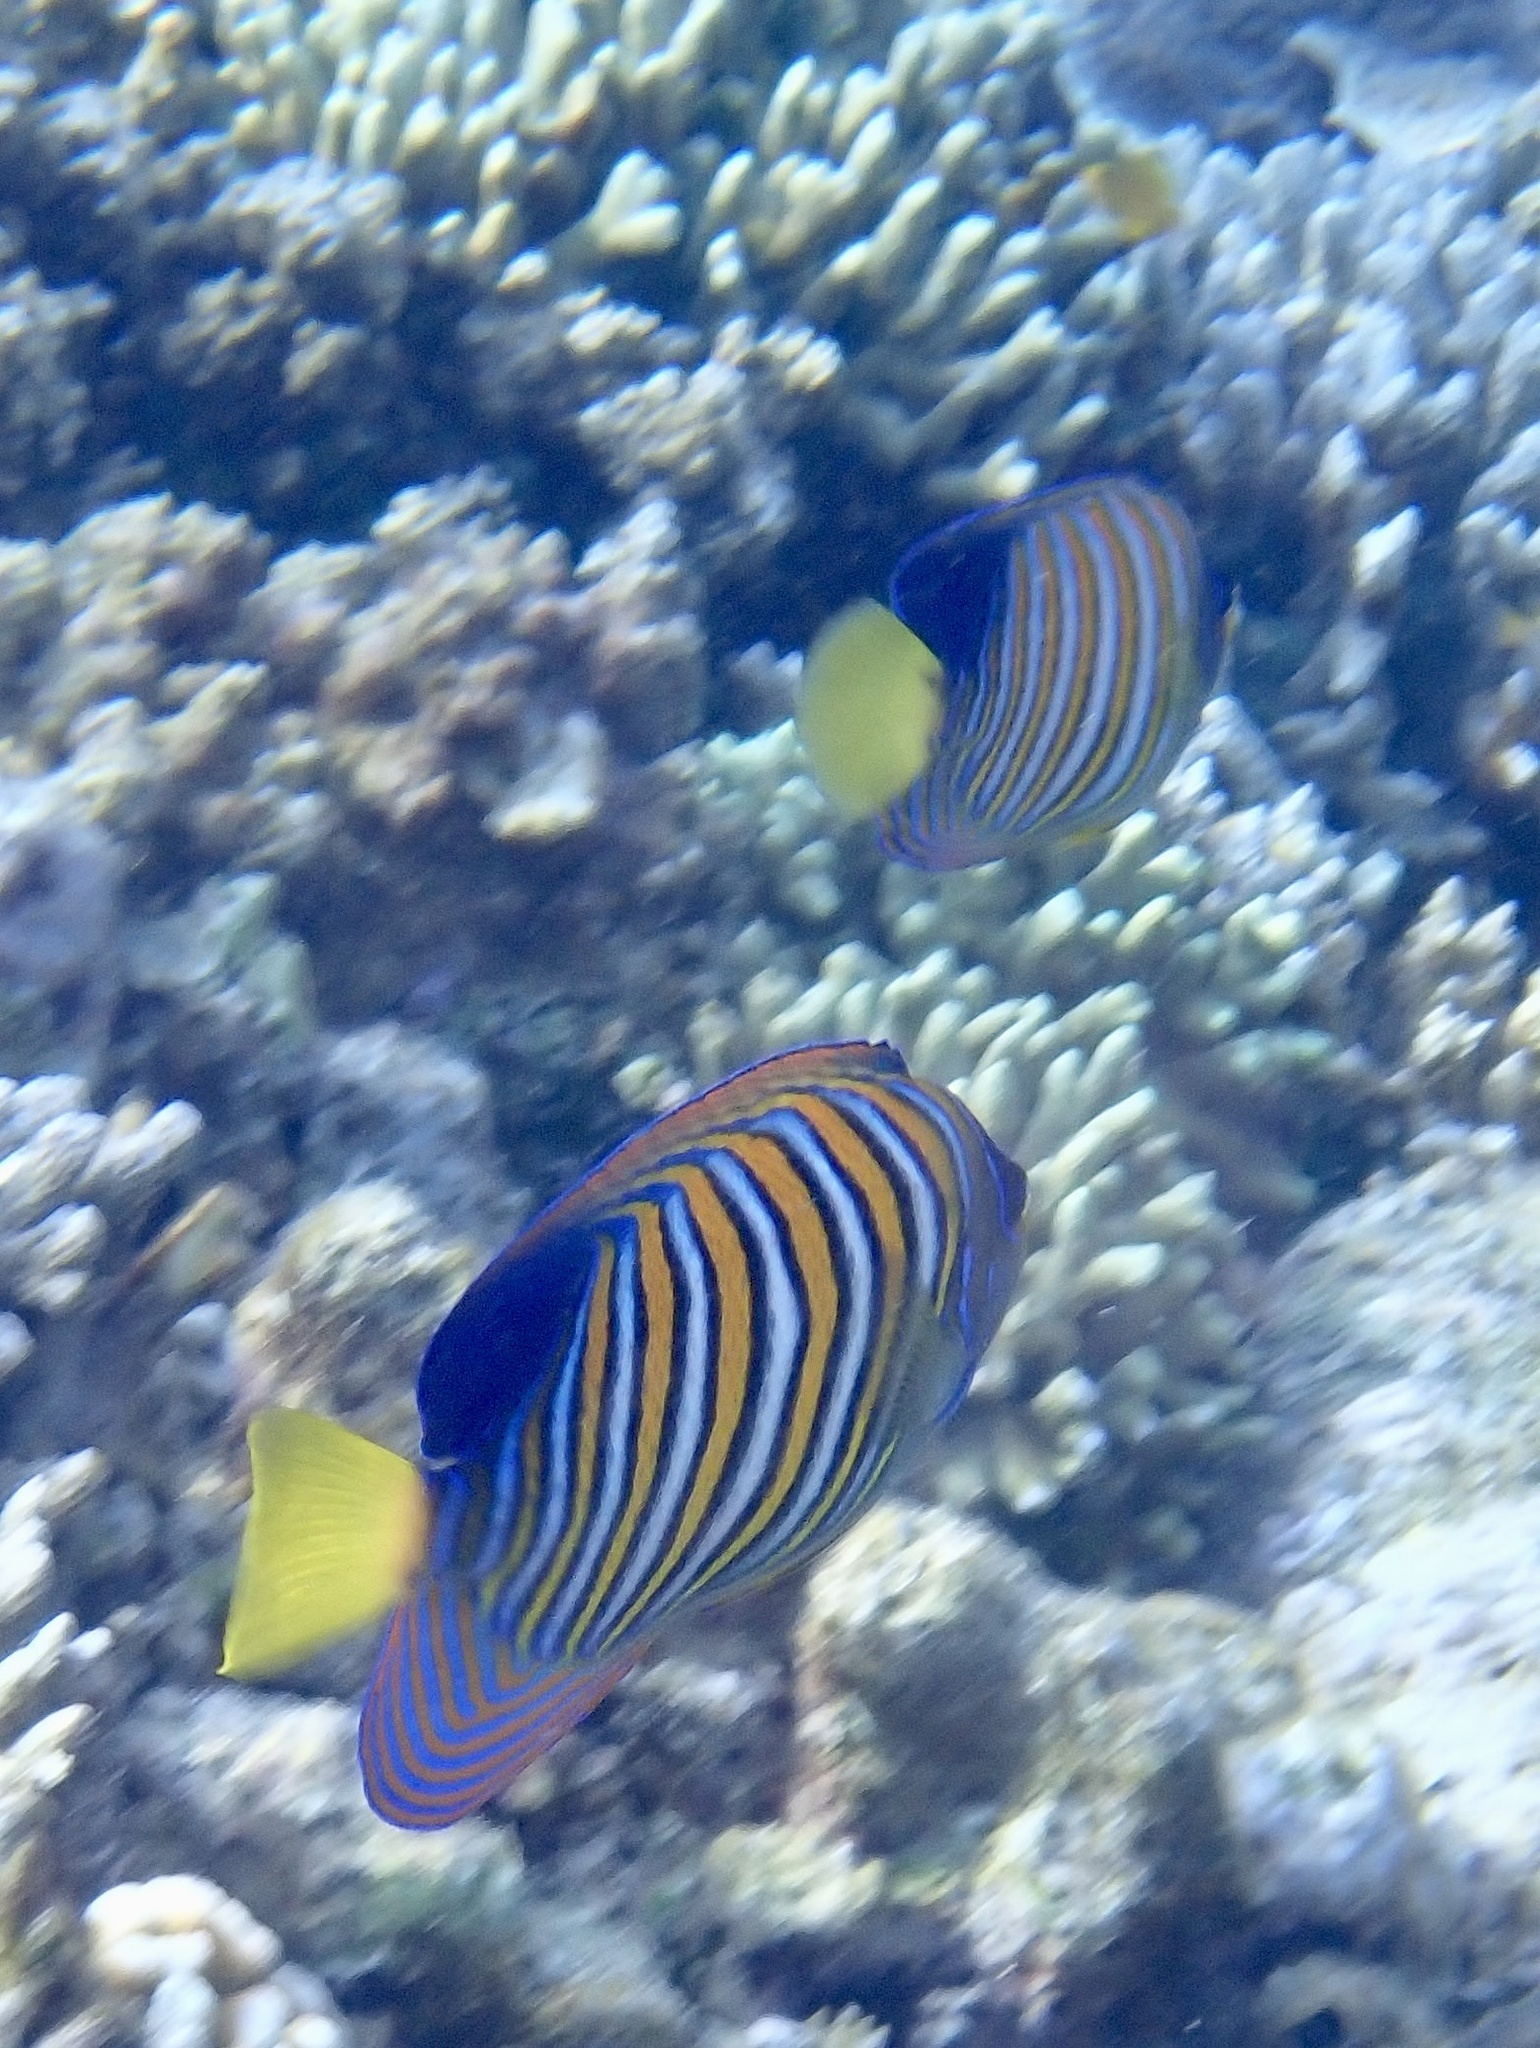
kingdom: Animalia
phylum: Chordata
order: Perciformes
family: Pomacanthidae
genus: Pygoplites
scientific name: Pygoplites diacanthus
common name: Regal angelfish
